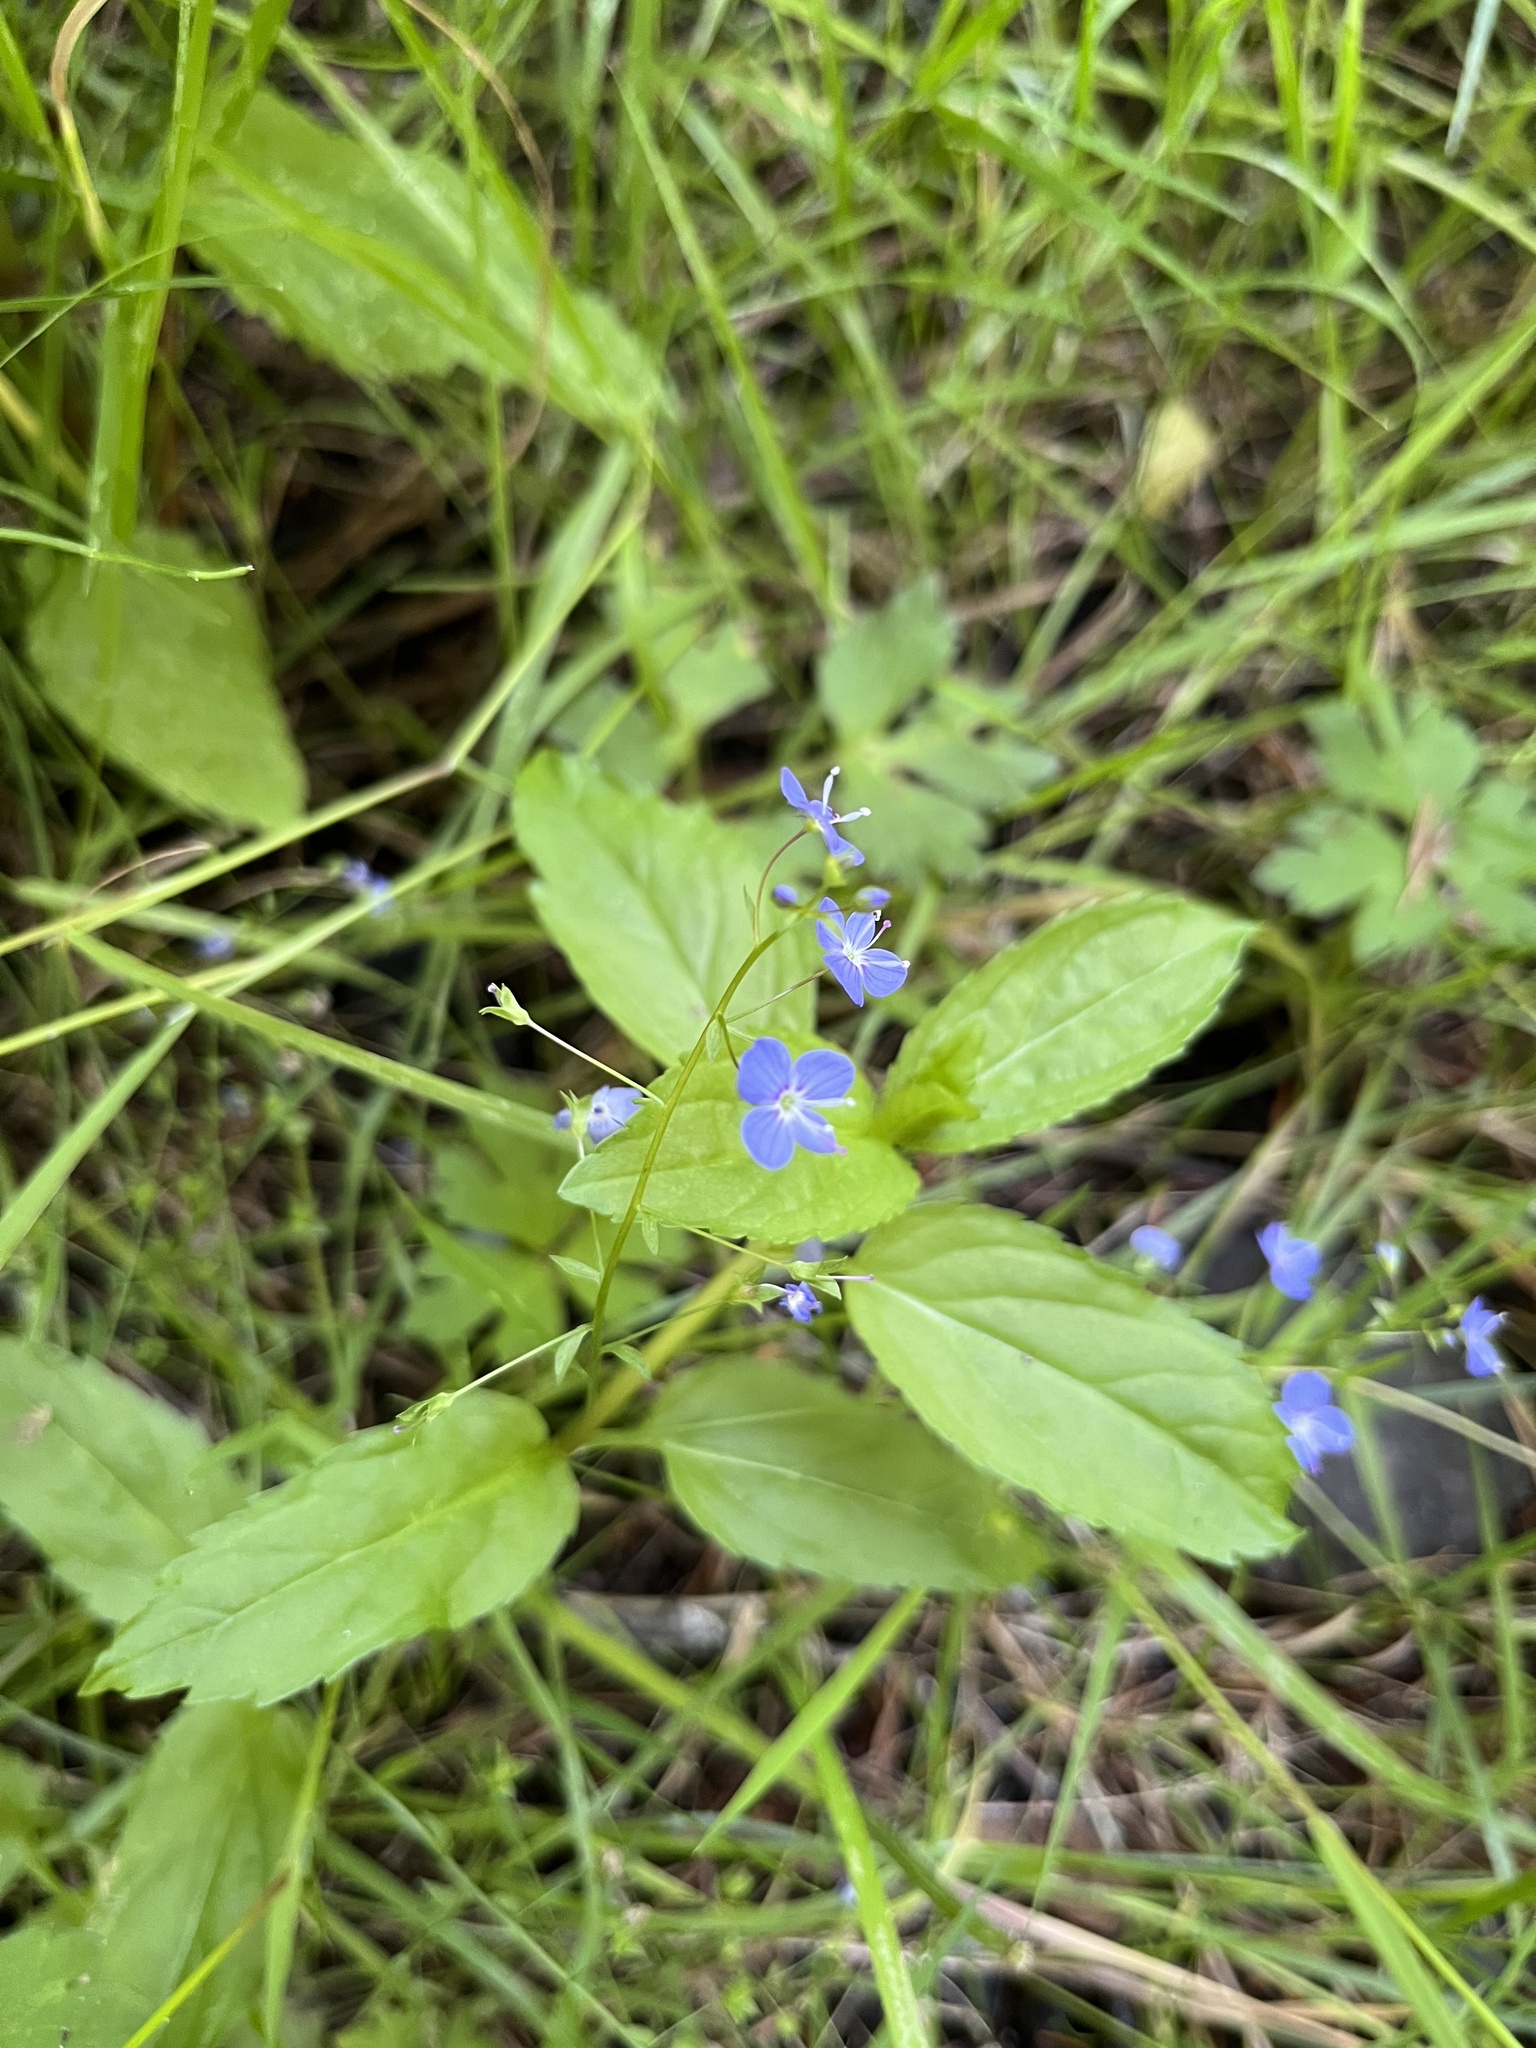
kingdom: Plantae
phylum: Tracheophyta
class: Magnoliopsida
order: Lamiales
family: Plantaginaceae
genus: Veronica
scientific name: Veronica americana
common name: American brooklime
